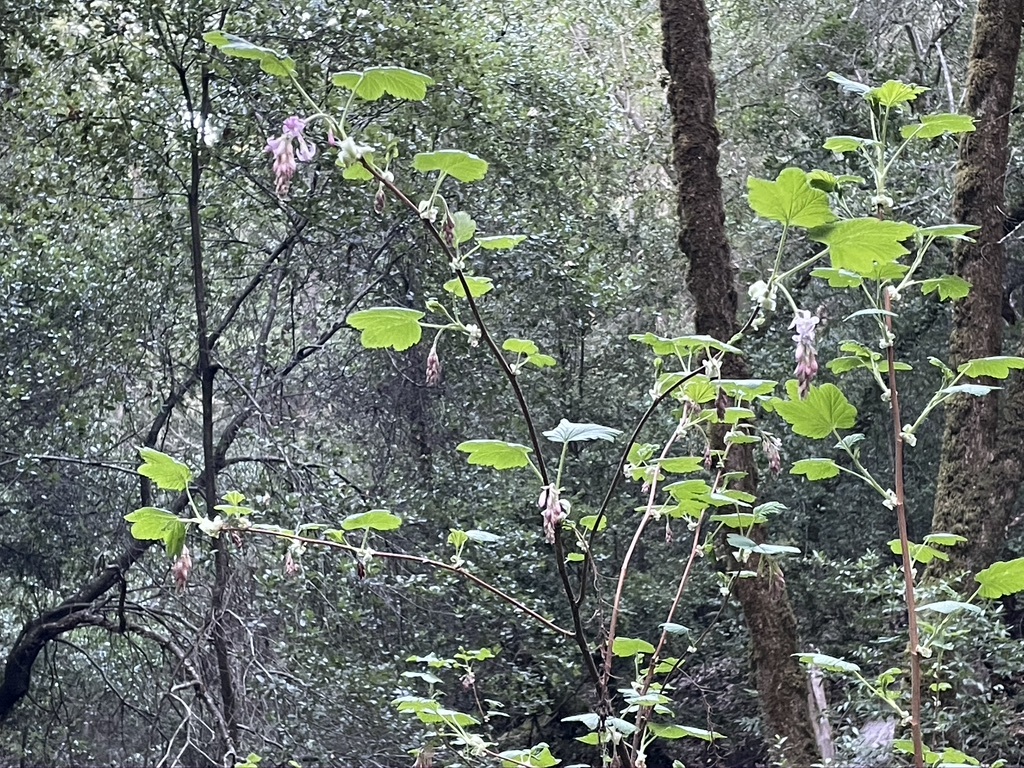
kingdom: Plantae
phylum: Tracheophyta
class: Magnoliopsida
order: Saxifragales
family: Grossulariaceae
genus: Ribes
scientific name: Ribes sanguineum
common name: Flowering currant
